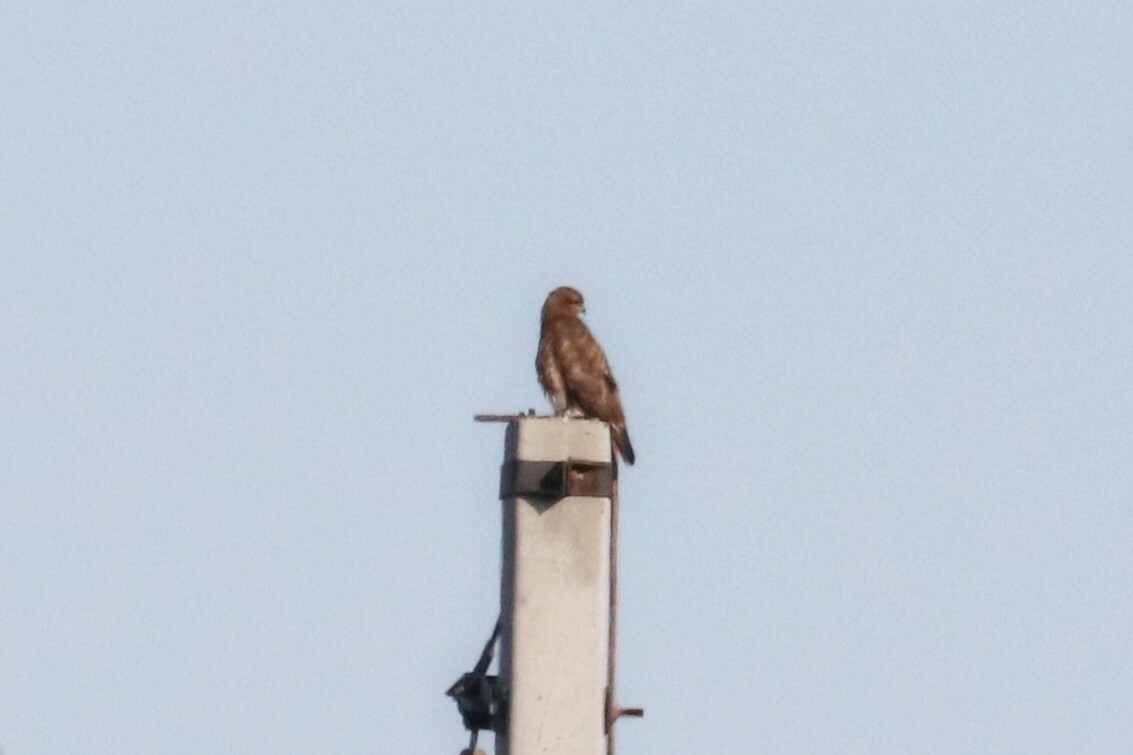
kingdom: Animalia
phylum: Chordata
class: Aves
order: Accipitriformes
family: Accipitridae
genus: Milvus
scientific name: Milvus migrans
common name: Black kite
